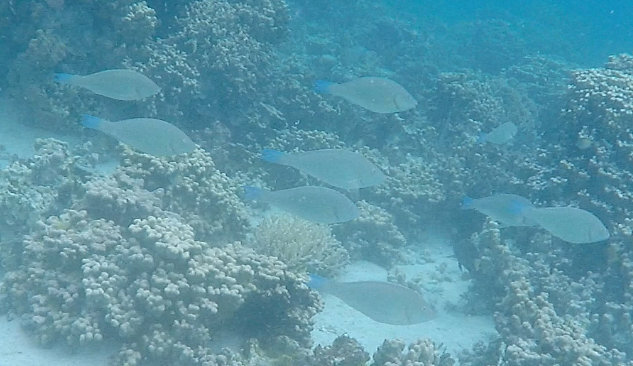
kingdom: Animalia
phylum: Chordata
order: Perciformes
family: Scaridae
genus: Hipposcarus
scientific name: Hipposcarus harid
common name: Candelamoa parrotfish
